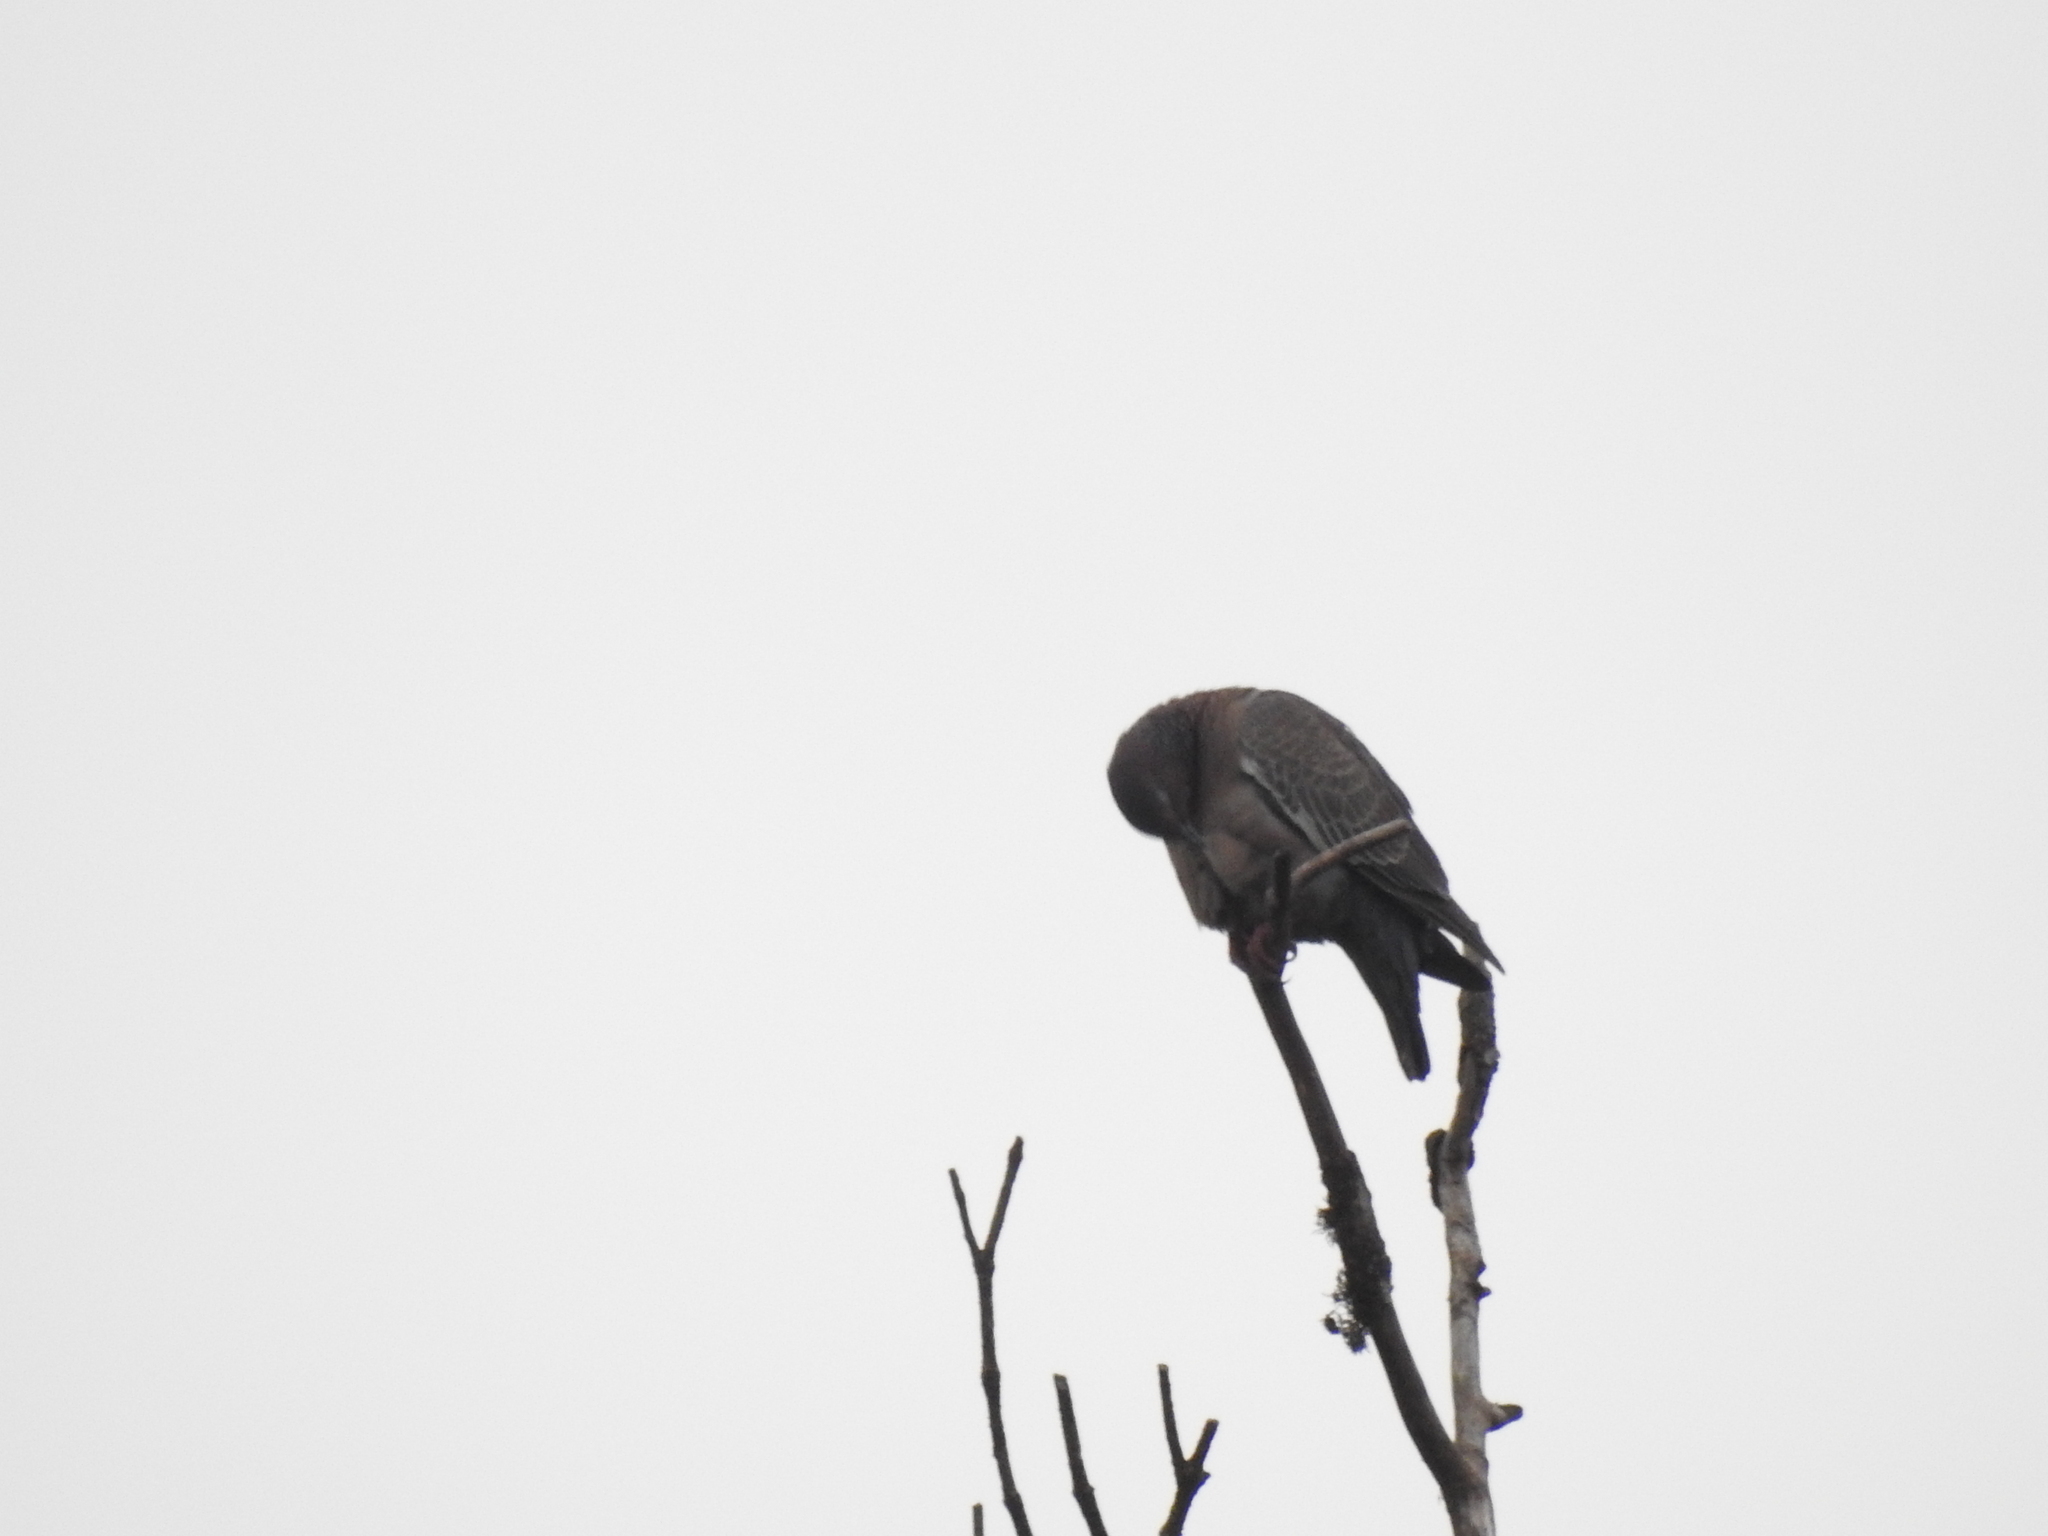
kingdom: Animalia
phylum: Chordata
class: Aves
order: Columbiformes
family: Columbidae
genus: Patagioenas
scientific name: Patagioenas picazuro
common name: Picazuro pigeon
